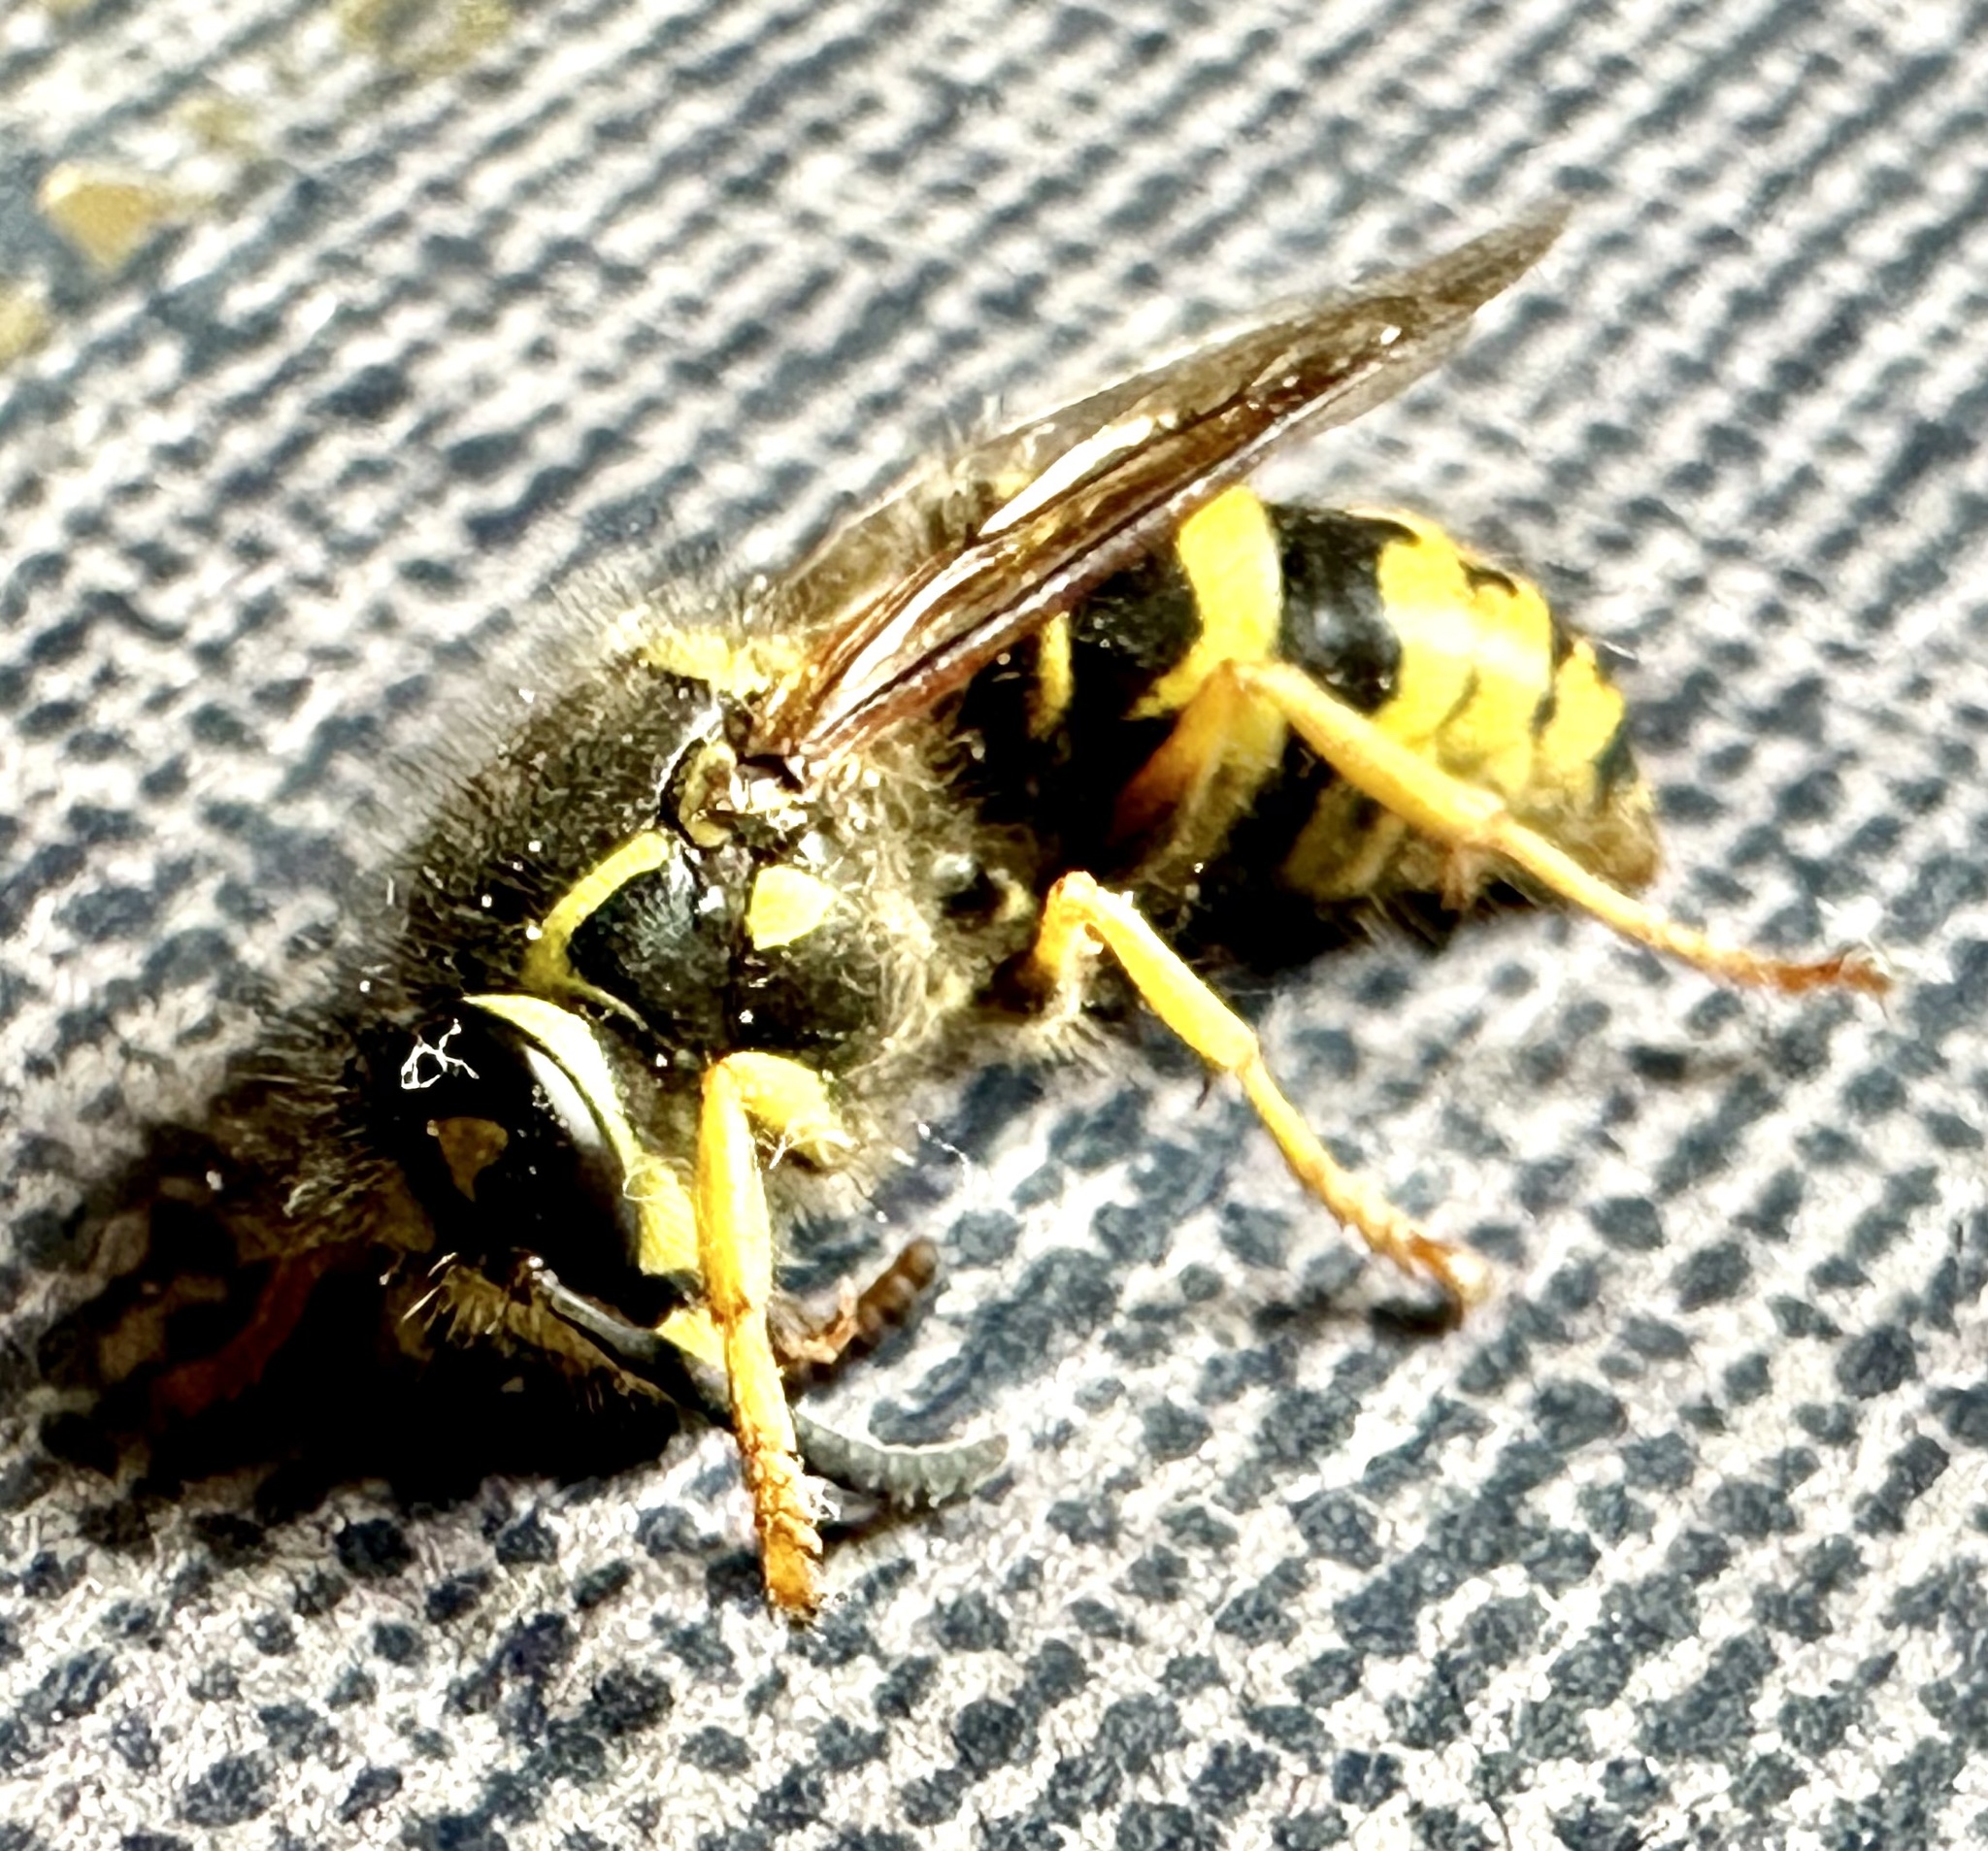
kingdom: Animalia
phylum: Arthropoda
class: Insecta
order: Hymenoptera
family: Vespidae
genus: Dolichovespula
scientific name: Dolichovespula arenaria
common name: Aerial yellowjacket
